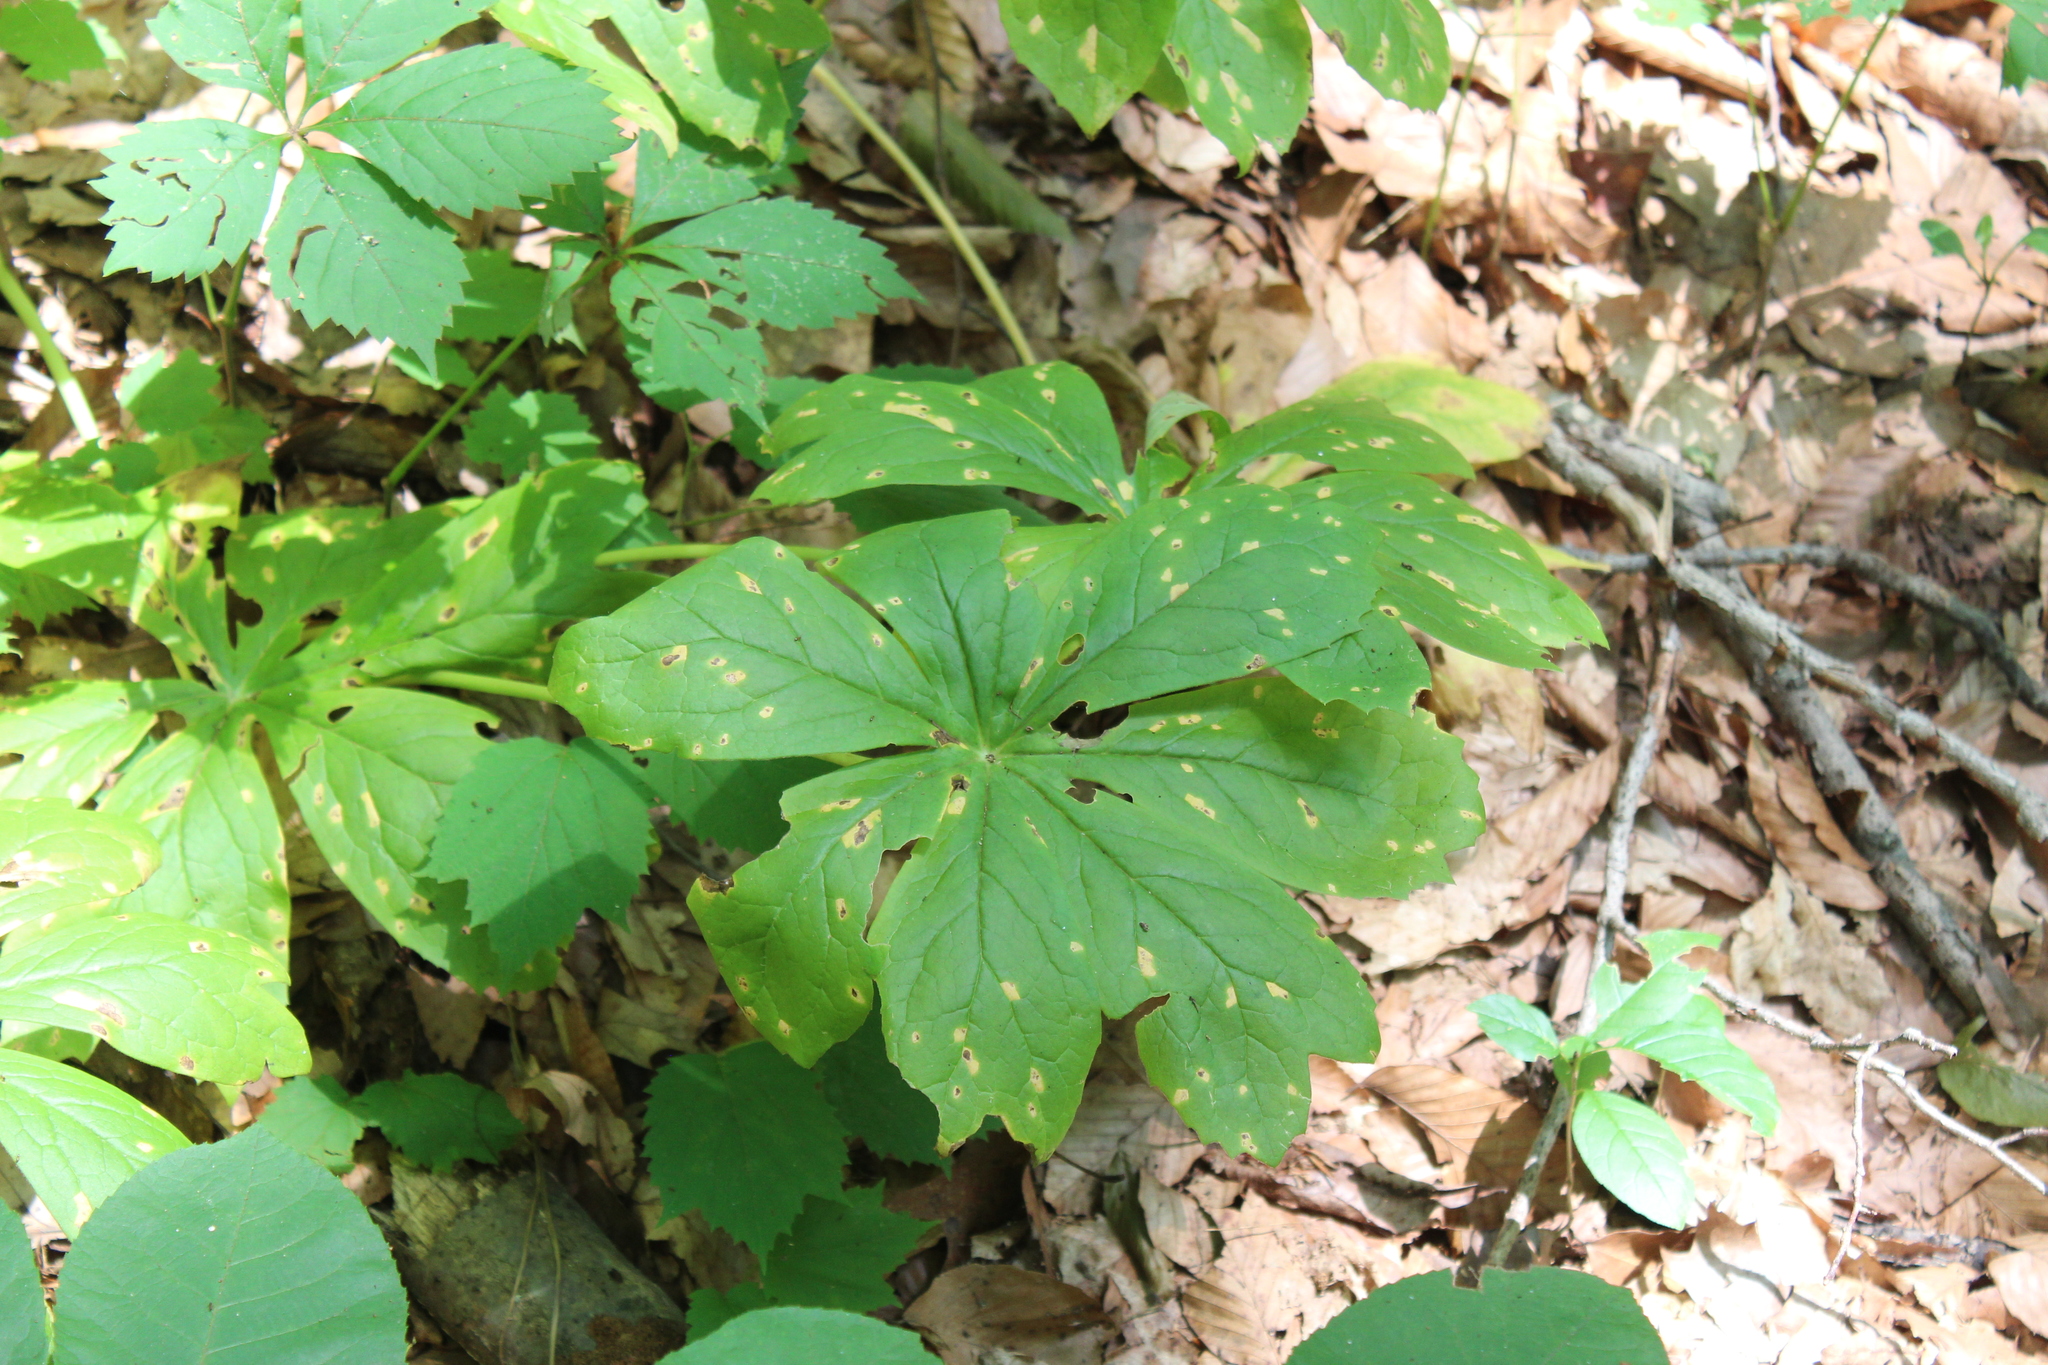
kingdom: Plantae
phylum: Tracheophyta
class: Magnoliopsida
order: Ranunculales
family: Berberidaceae
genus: Podophyllum
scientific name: Podophyllum peltatum
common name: Wild mandrake
